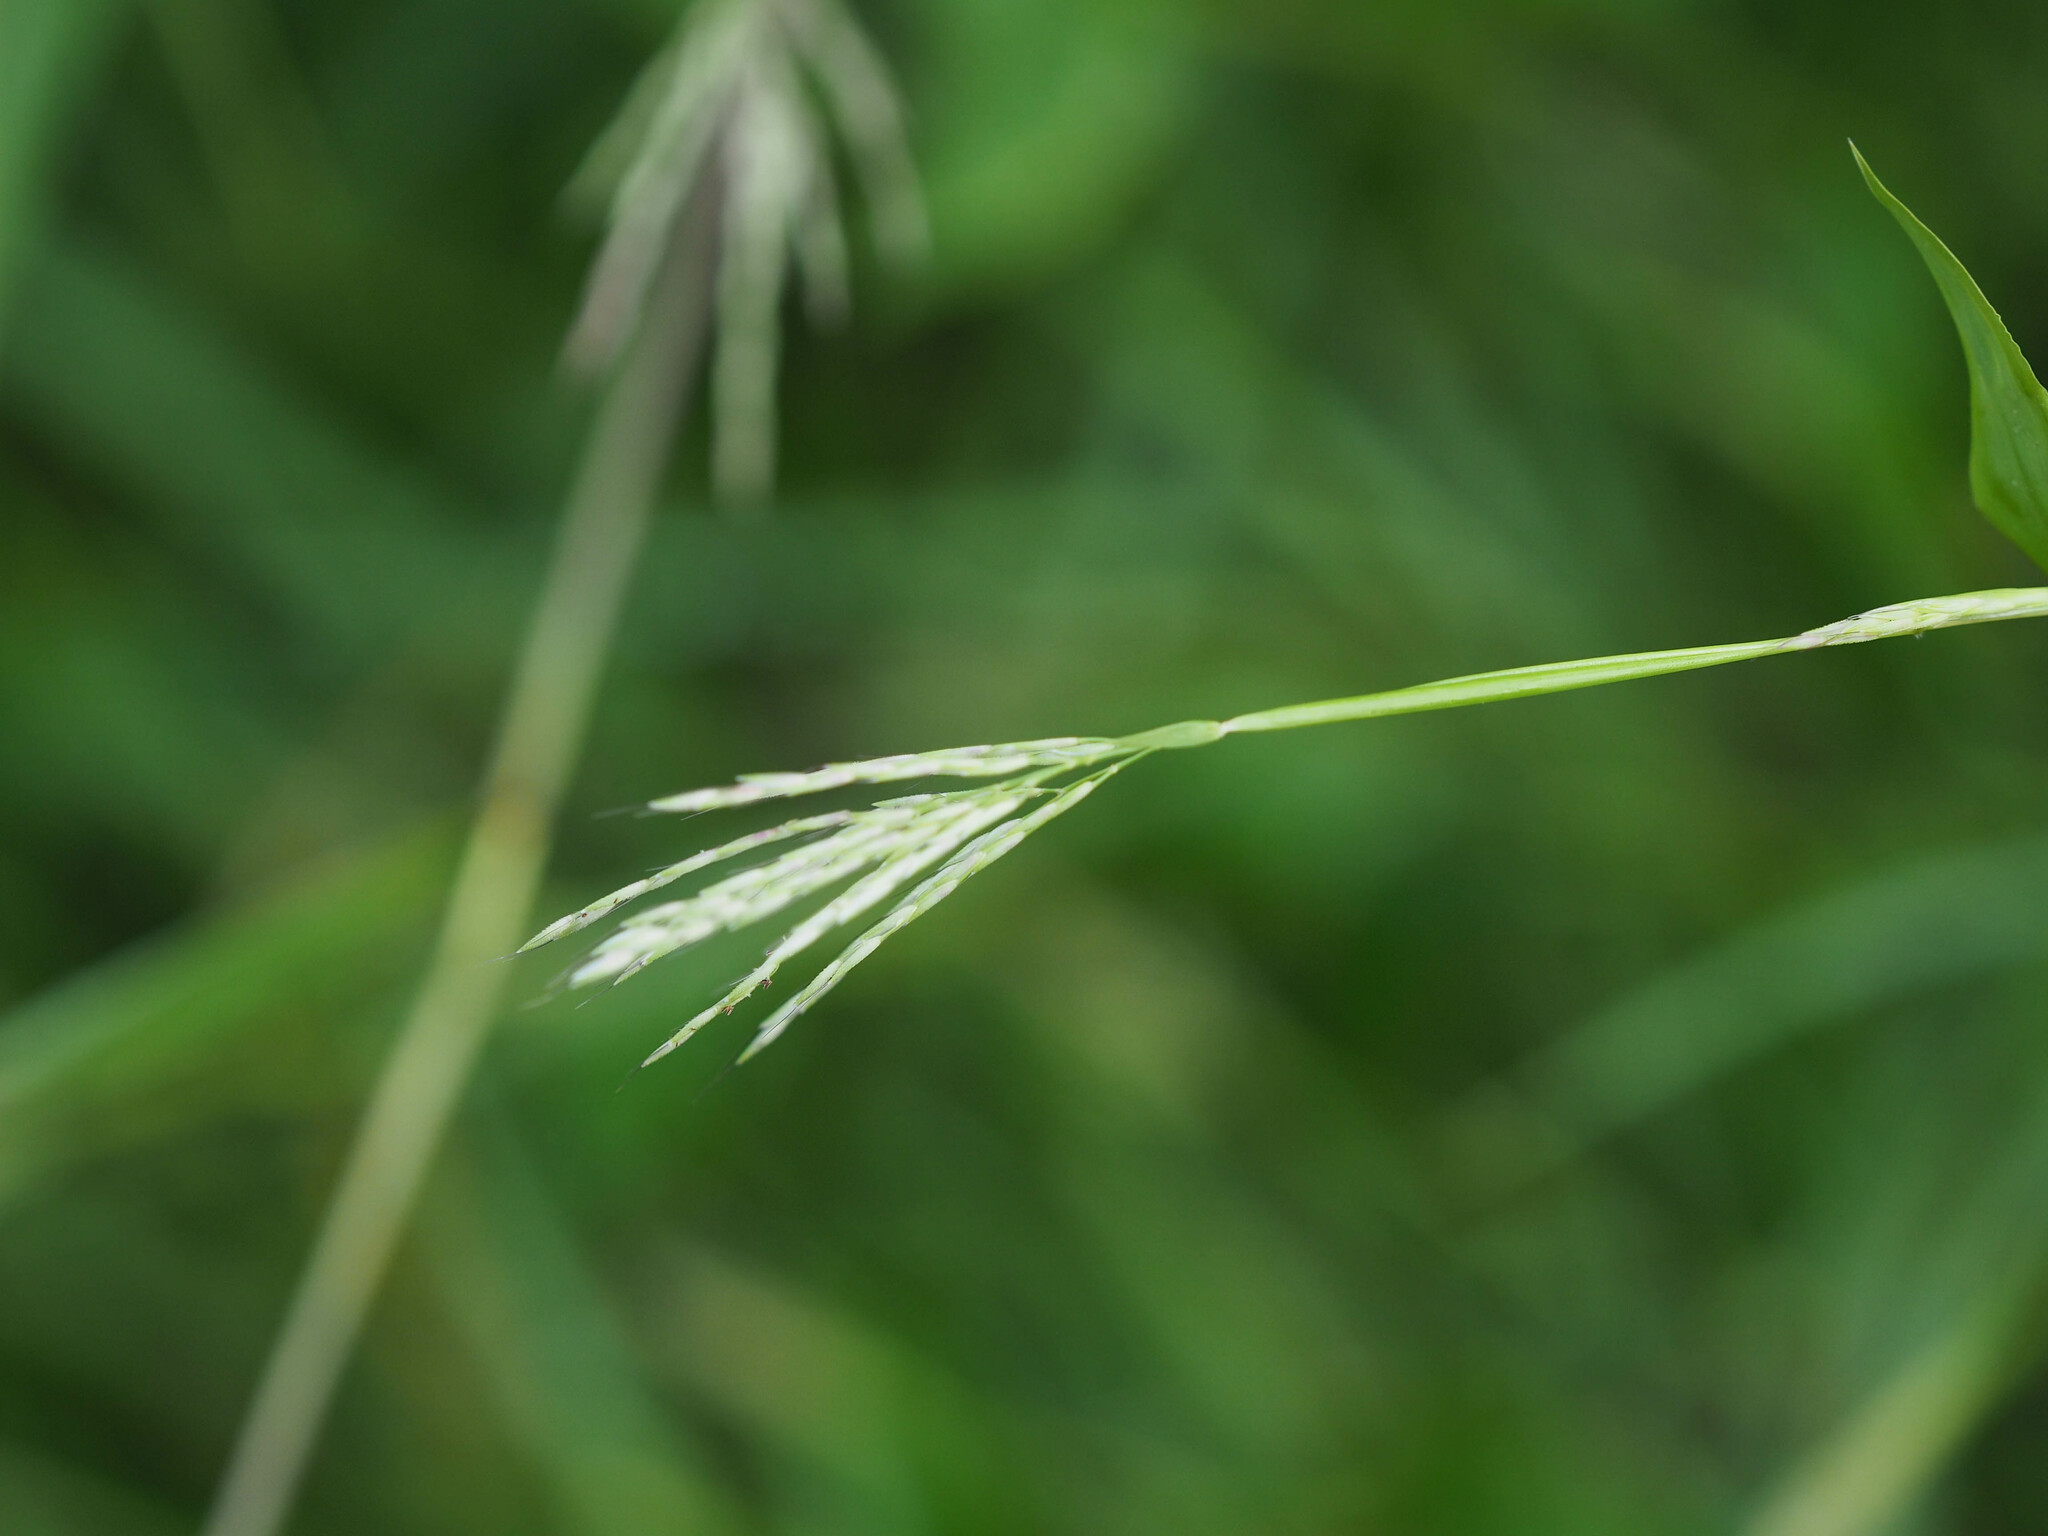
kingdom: Plantae
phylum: Tracheophyta
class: Liliopsida
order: Poales
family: Poaceae
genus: Arthraxon
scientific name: Arthraxon hispidus
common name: Small carpgrass
